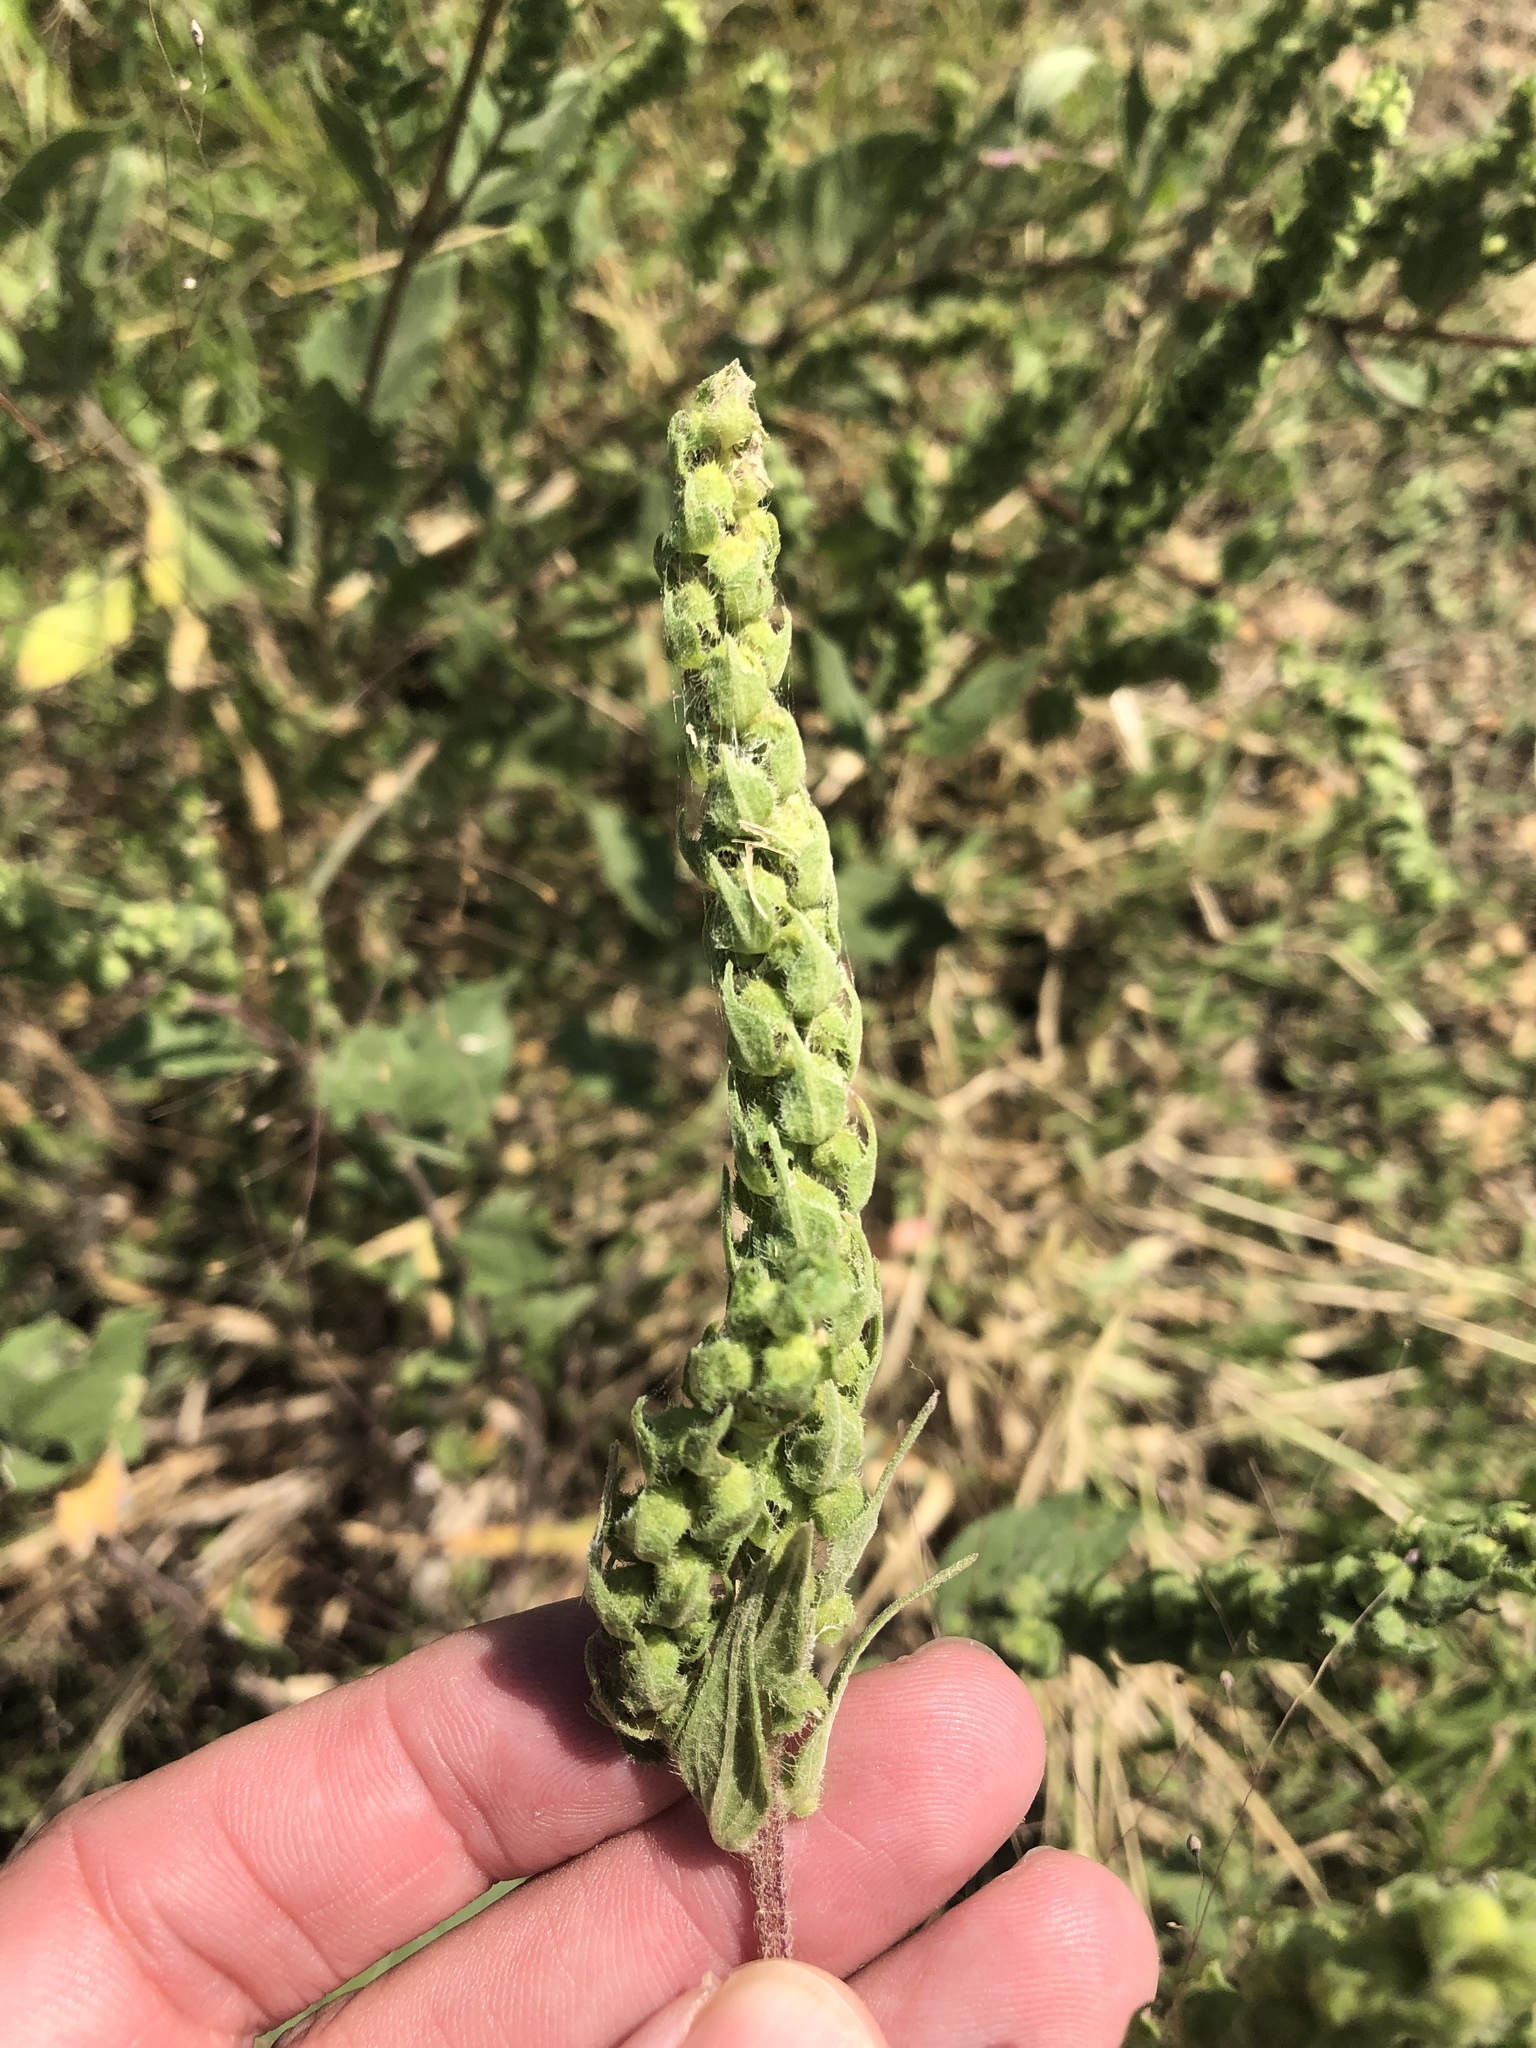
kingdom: Plantae
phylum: Tracheophyta
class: Magnoliopsida
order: Asterales
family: Asteraceae
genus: Iva
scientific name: Iva annua
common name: Marsh-elder
